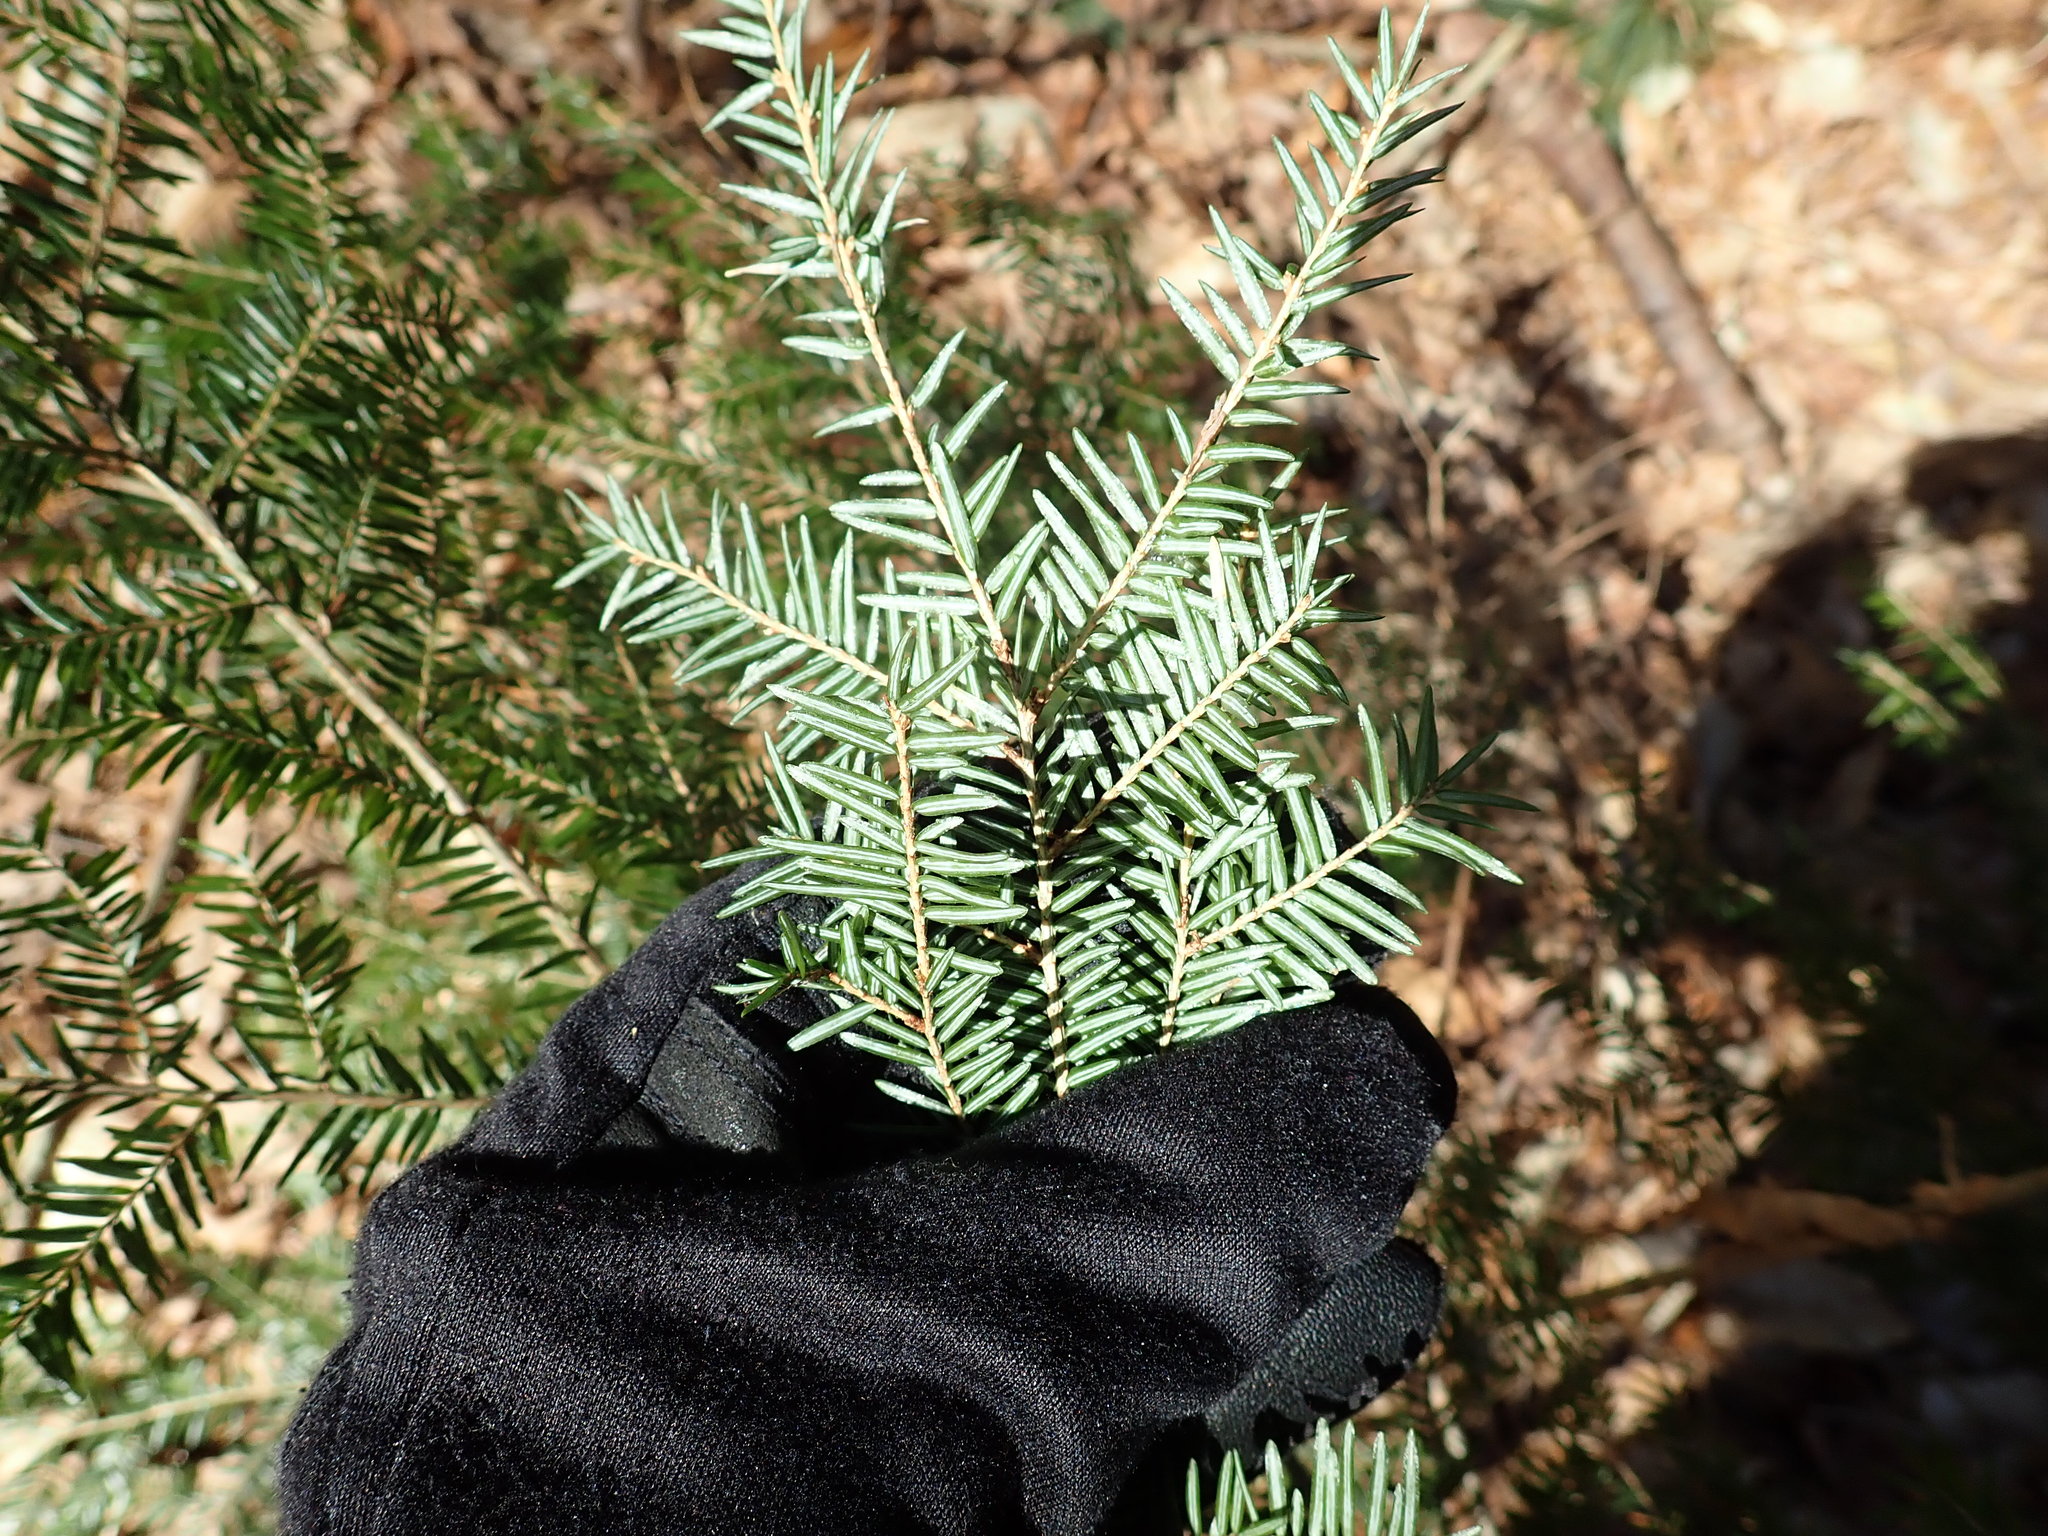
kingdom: Plantae
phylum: Tracheophyta
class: Pinopsida
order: Pinales
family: Pinaceae
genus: Tsuga
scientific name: Tsuga canadensis
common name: Eastern hemlock
